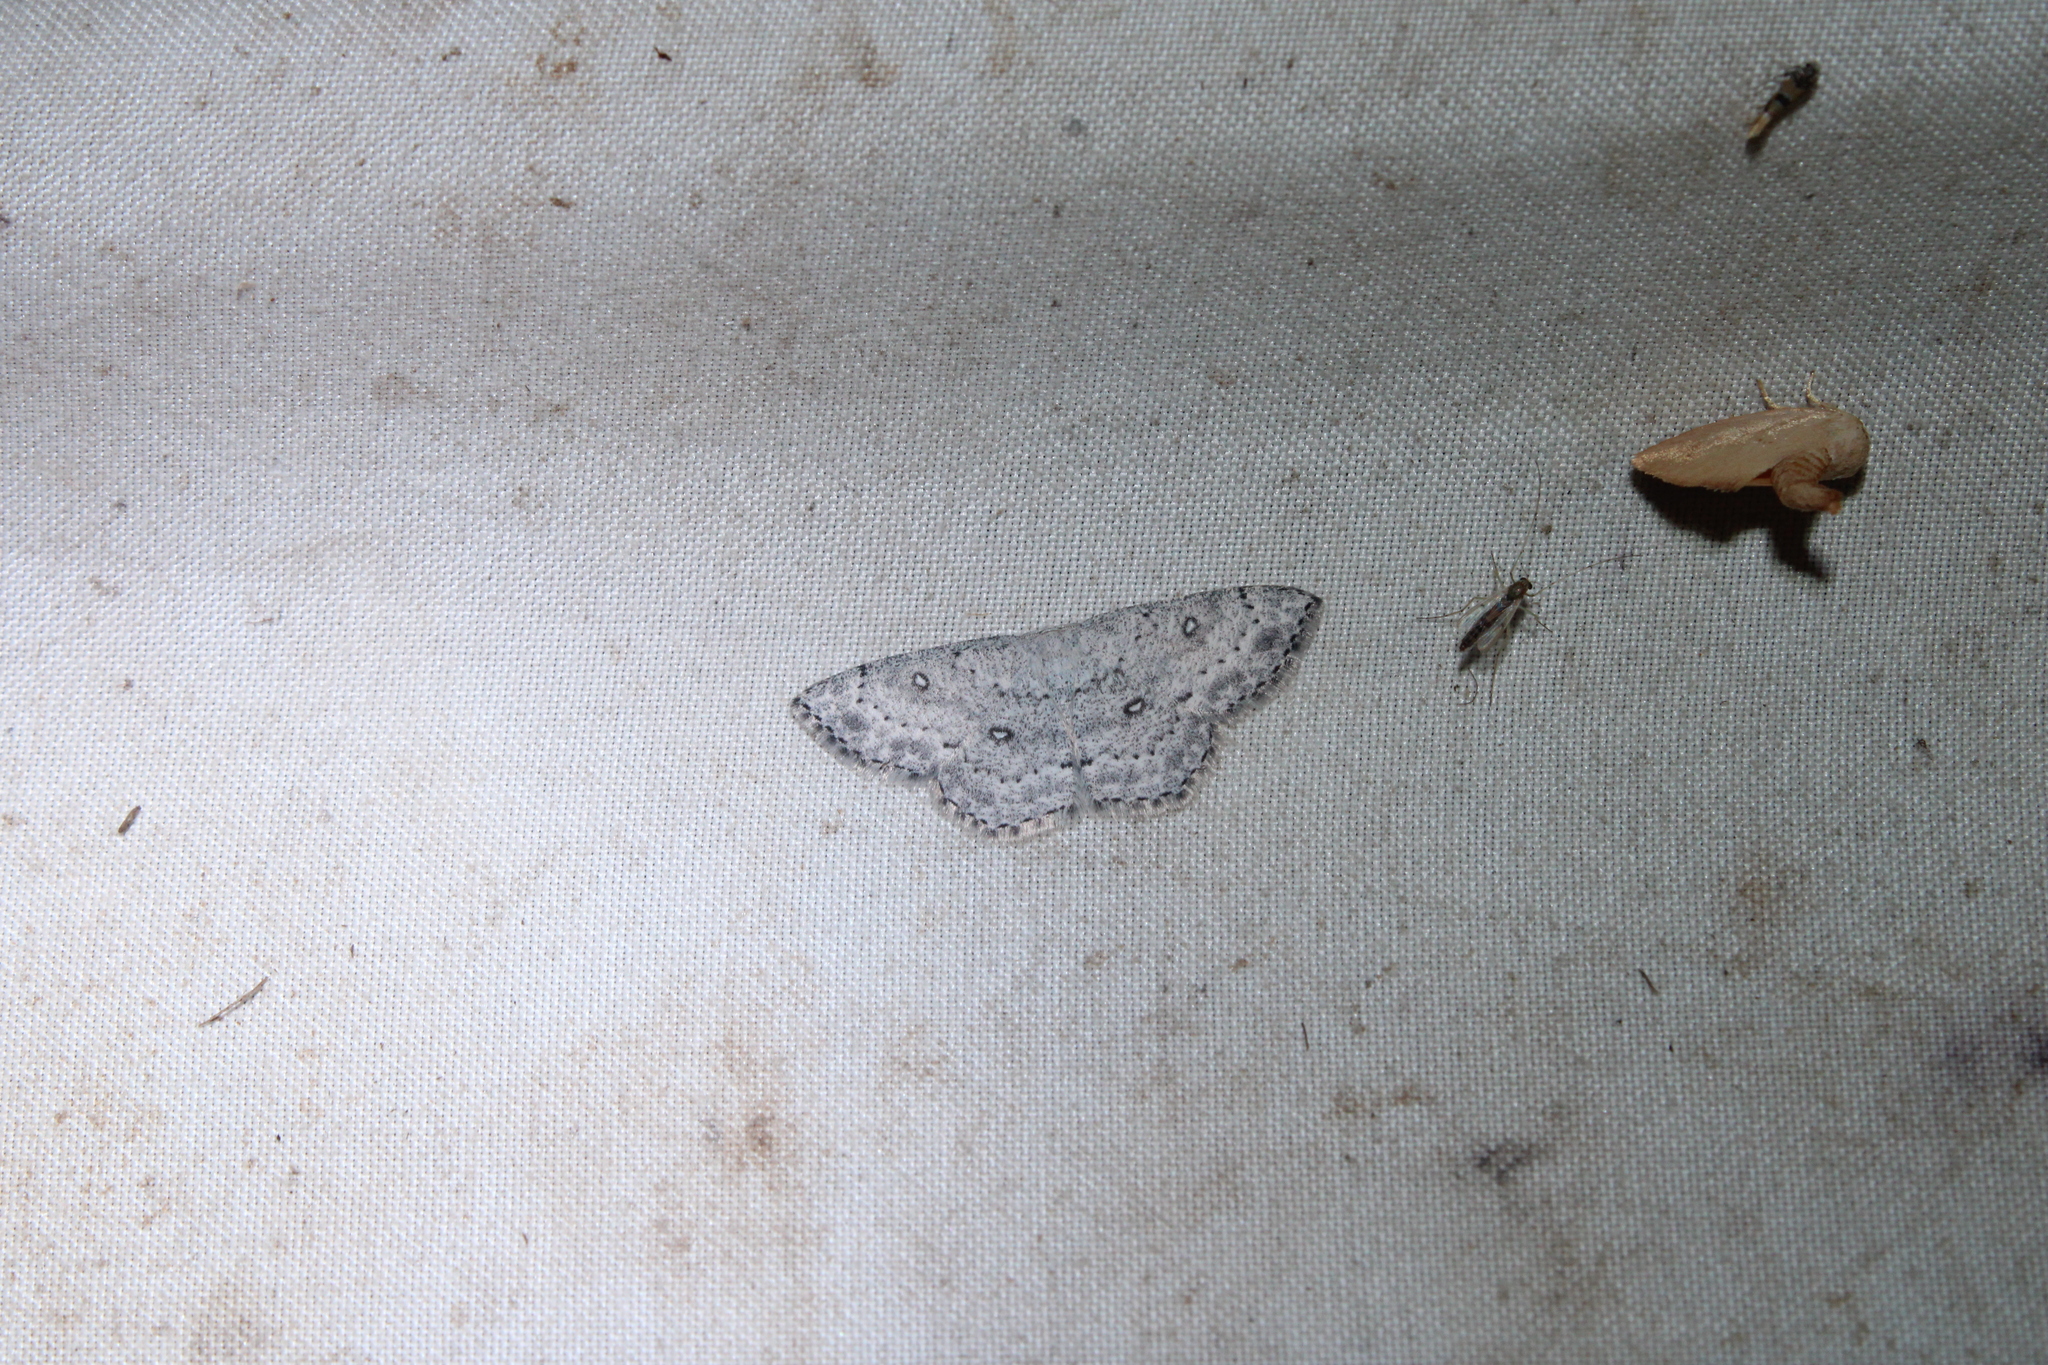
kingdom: Animalia
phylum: Arthropoda
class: Insecta
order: Lepidoptera
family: Geometridae
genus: Cyclophora
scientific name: Cyclophora pendulinaria
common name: Sweet fern geometer
